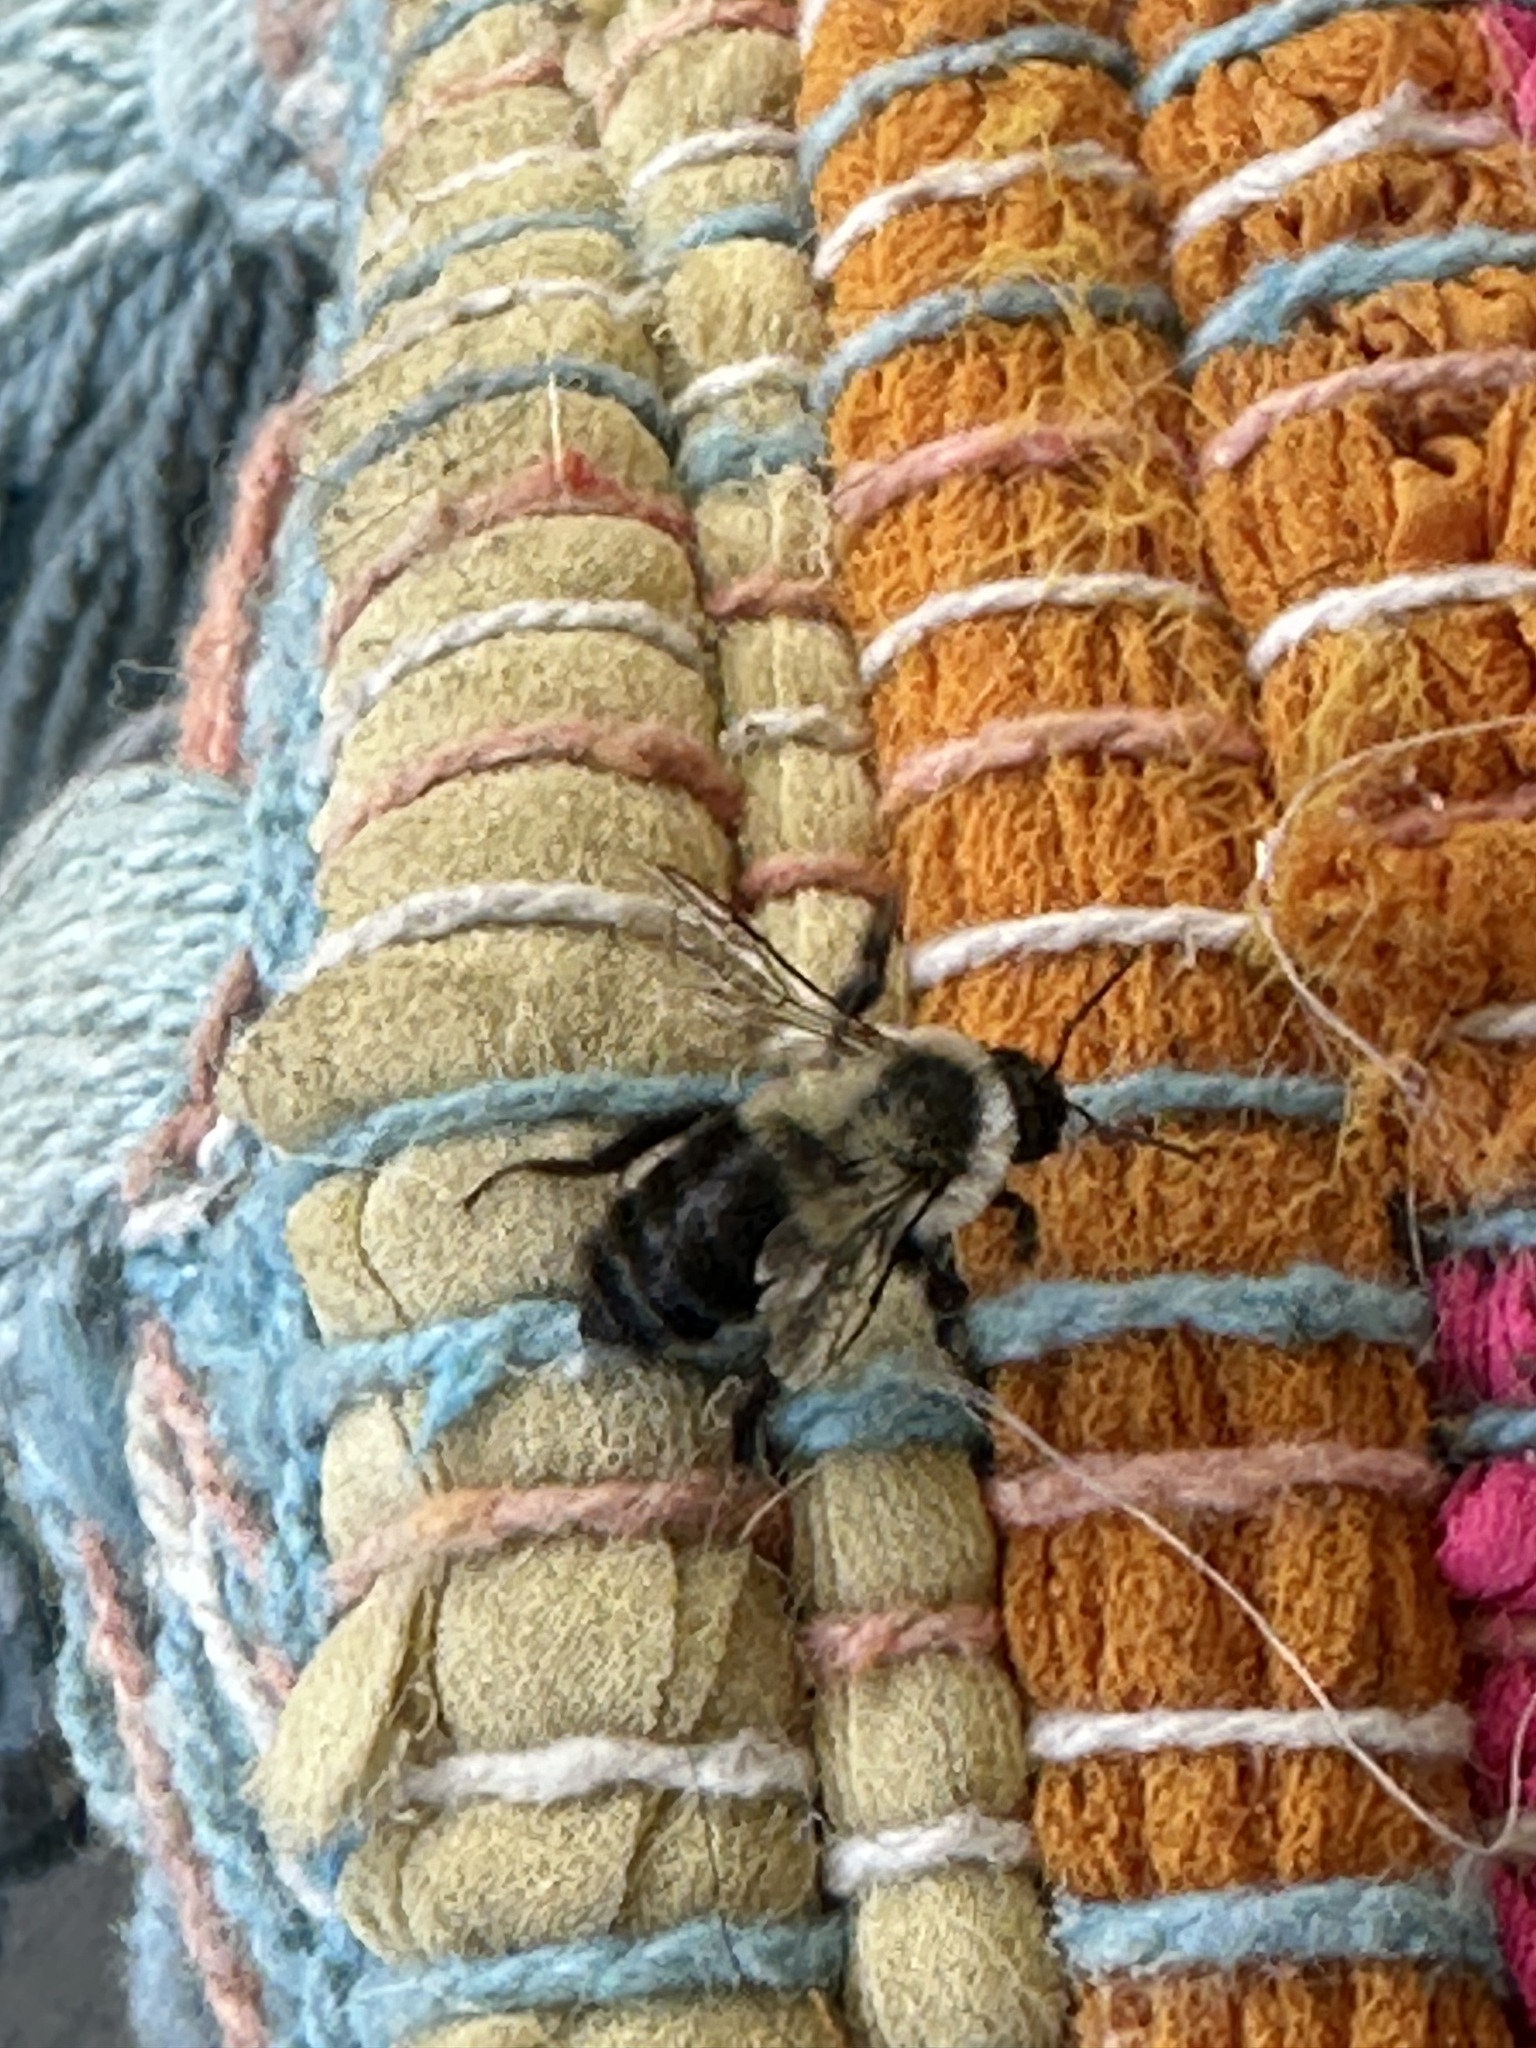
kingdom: Animalia
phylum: Arthropoda
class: Insecta
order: Hymenoptera
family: Apidae
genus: Bombus
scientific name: Bombus impatiens
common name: Common eastern bumble bee
